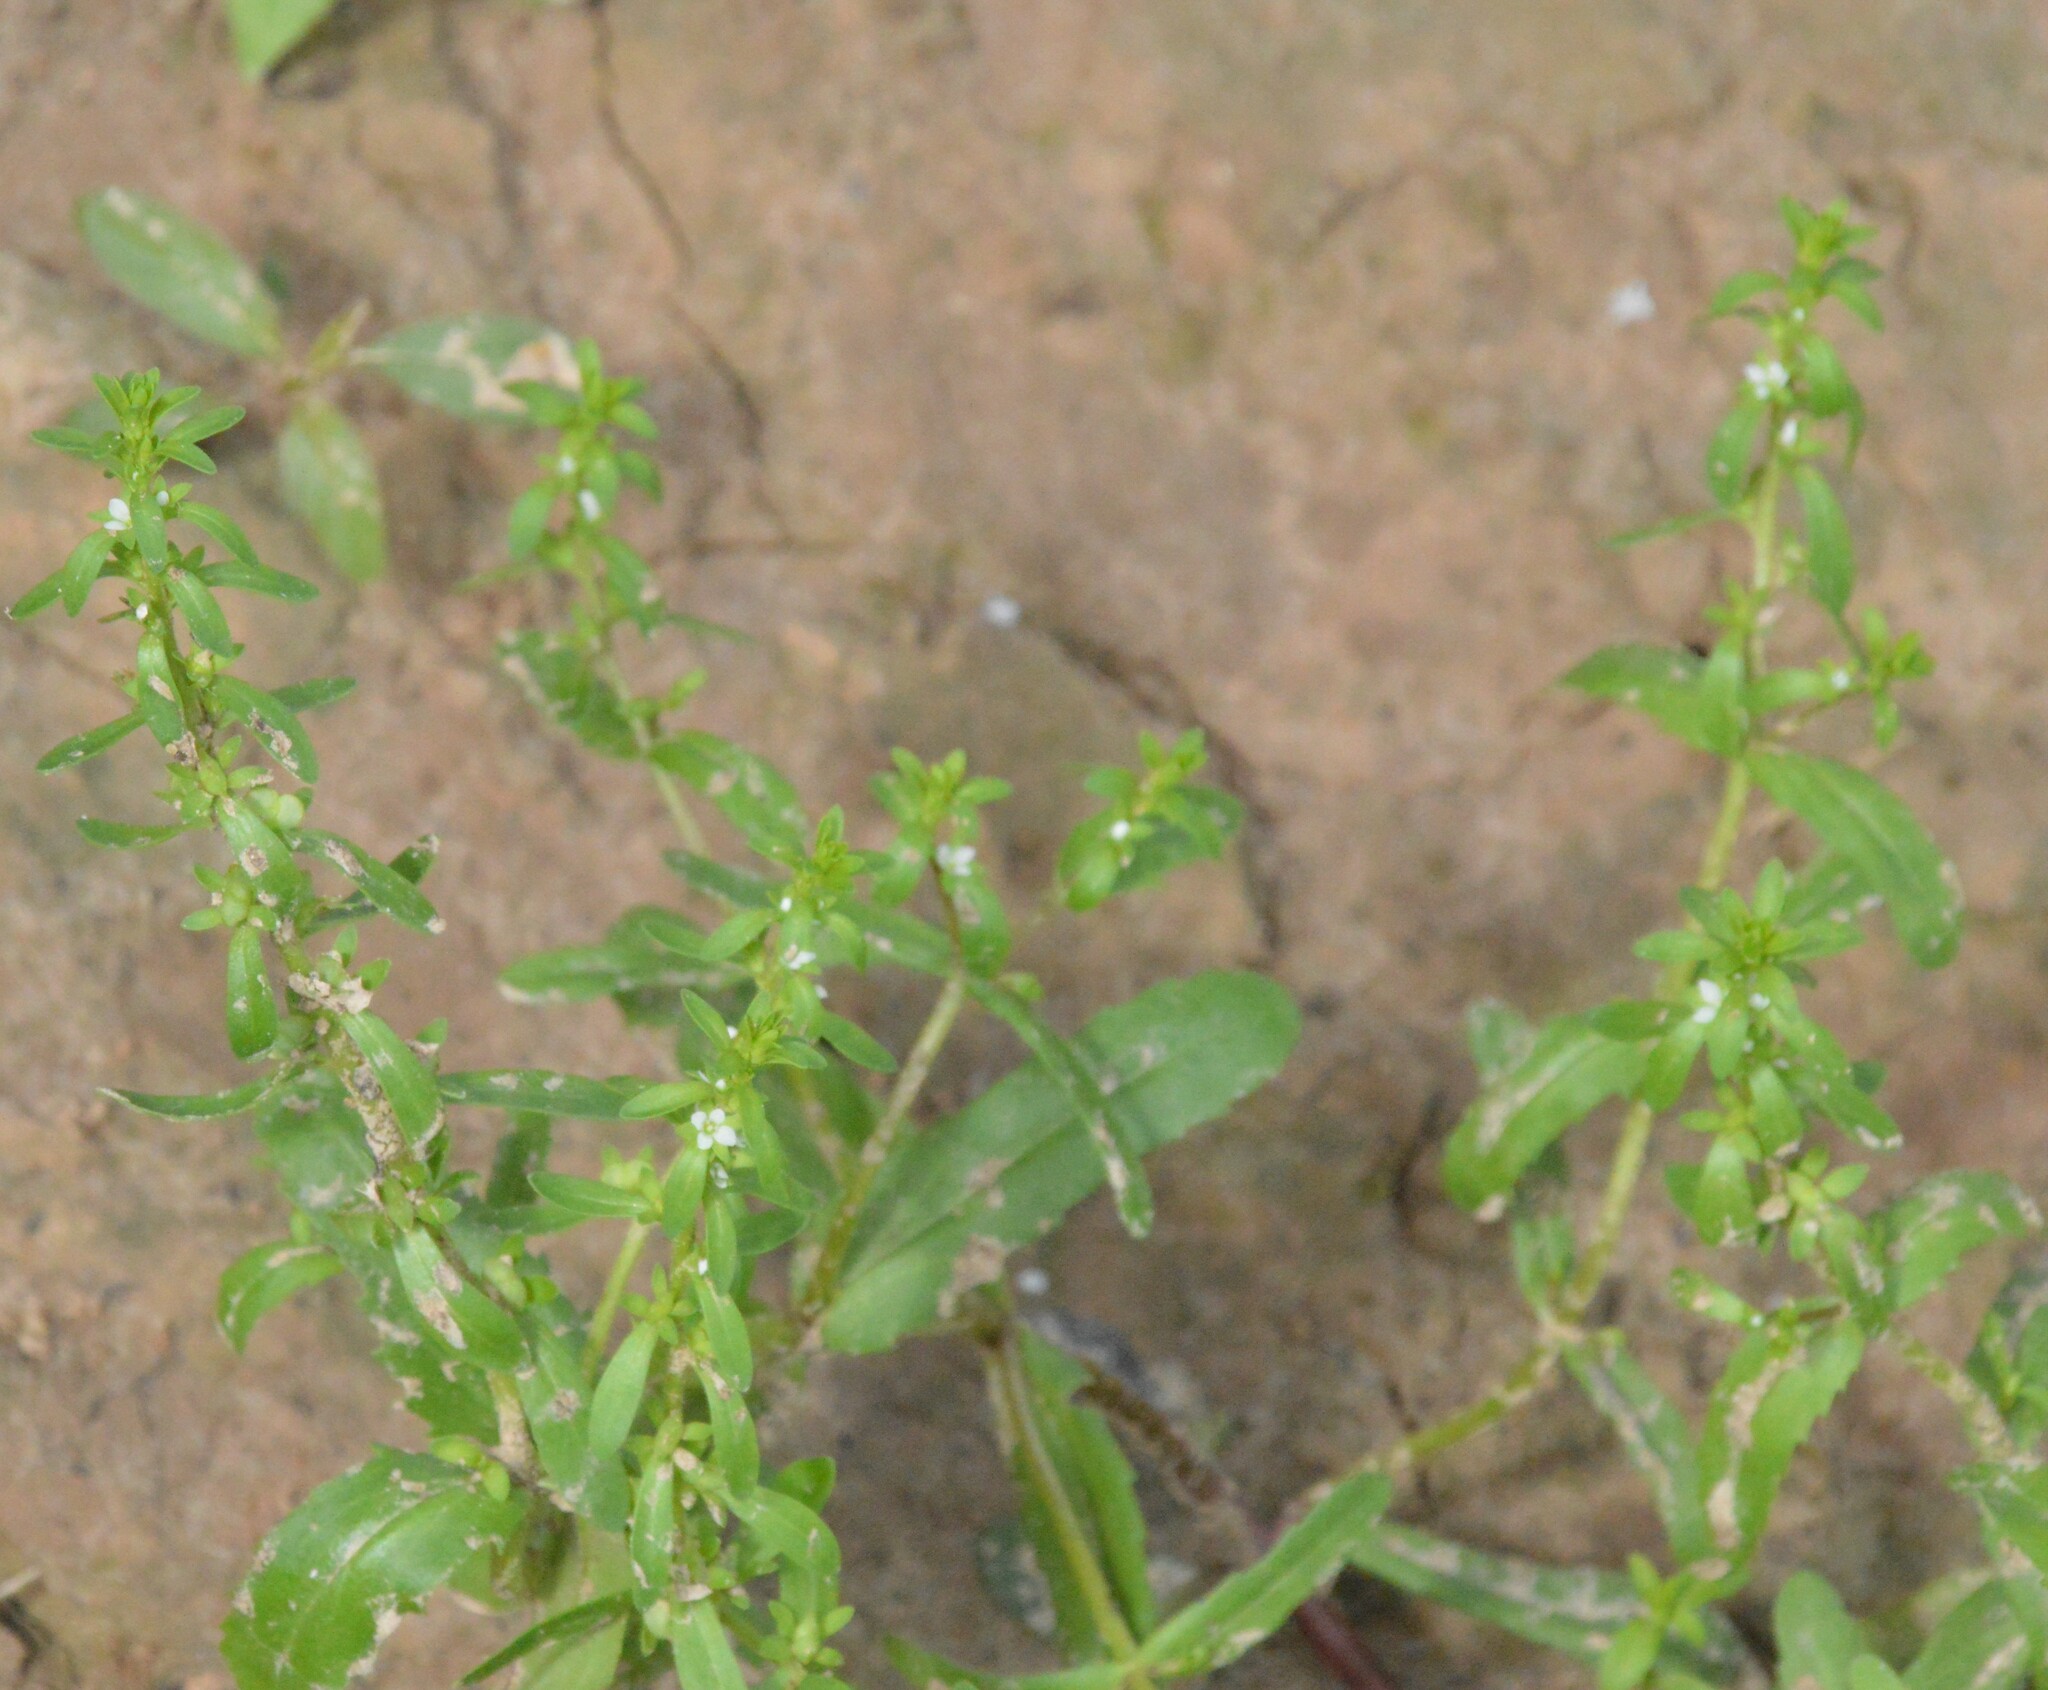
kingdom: Plantae
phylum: Tracheophyta
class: Magnoliopsida
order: Lamiales
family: Plantaginaceae
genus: Veronica
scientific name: Veronica peregrina
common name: Neckweed
